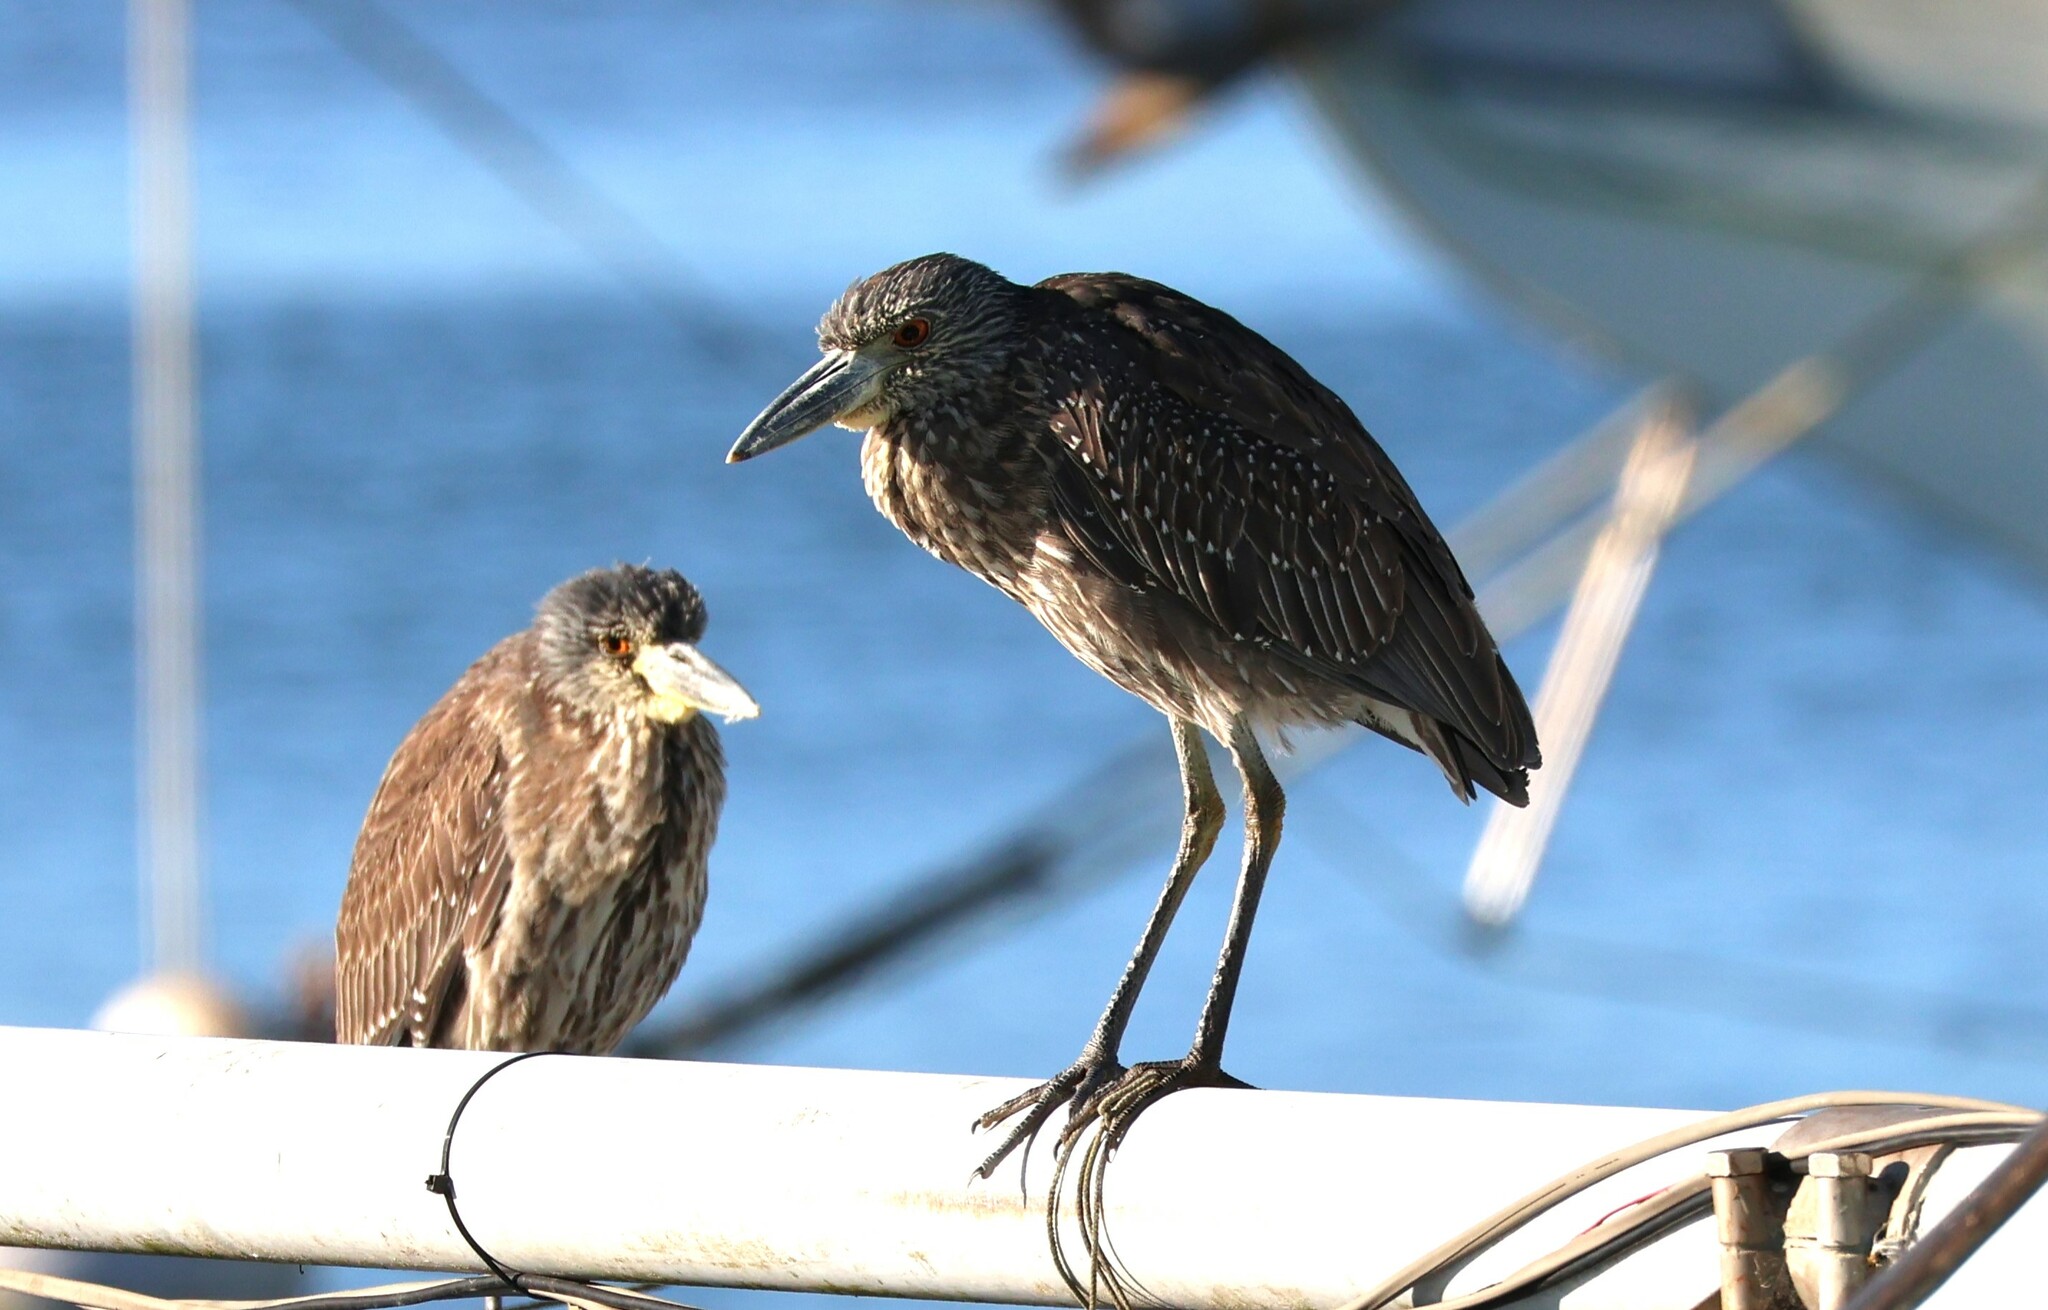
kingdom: Animalia
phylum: Chordata
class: Aves
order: Pelecaniformes
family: Ardeidae
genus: Nyctanassa
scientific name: Nyctanassa violacea
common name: Yellow-crowned night heron
